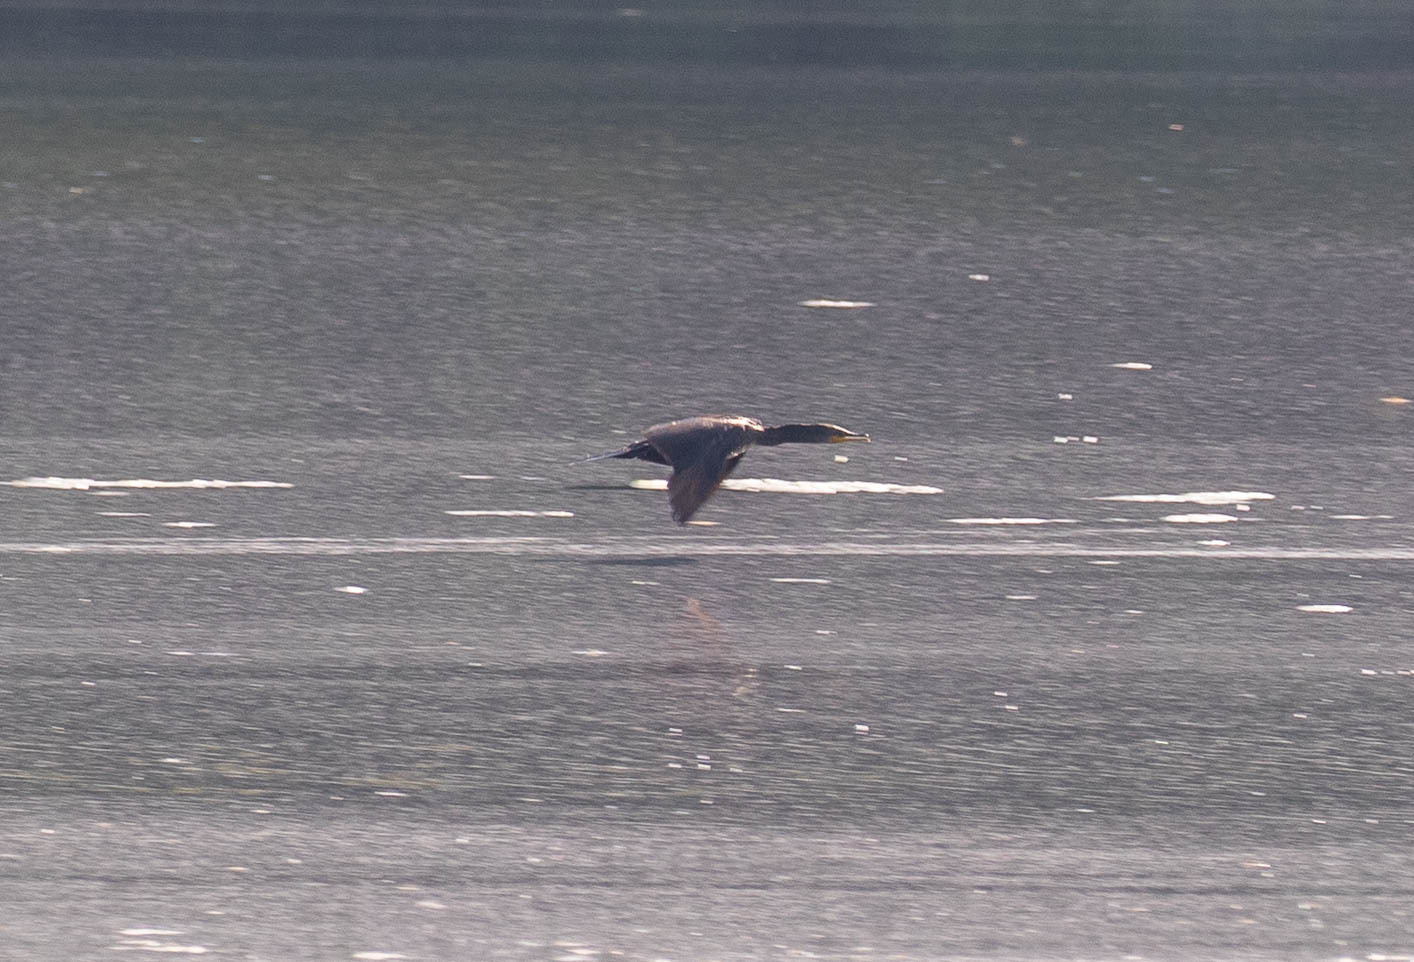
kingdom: Animalia
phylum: Chordata
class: Aves
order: Suliformes
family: Phalacrocoracidae
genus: Phalacrocorax
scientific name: Phalacrocorax auritus
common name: Double-crested cormorant
